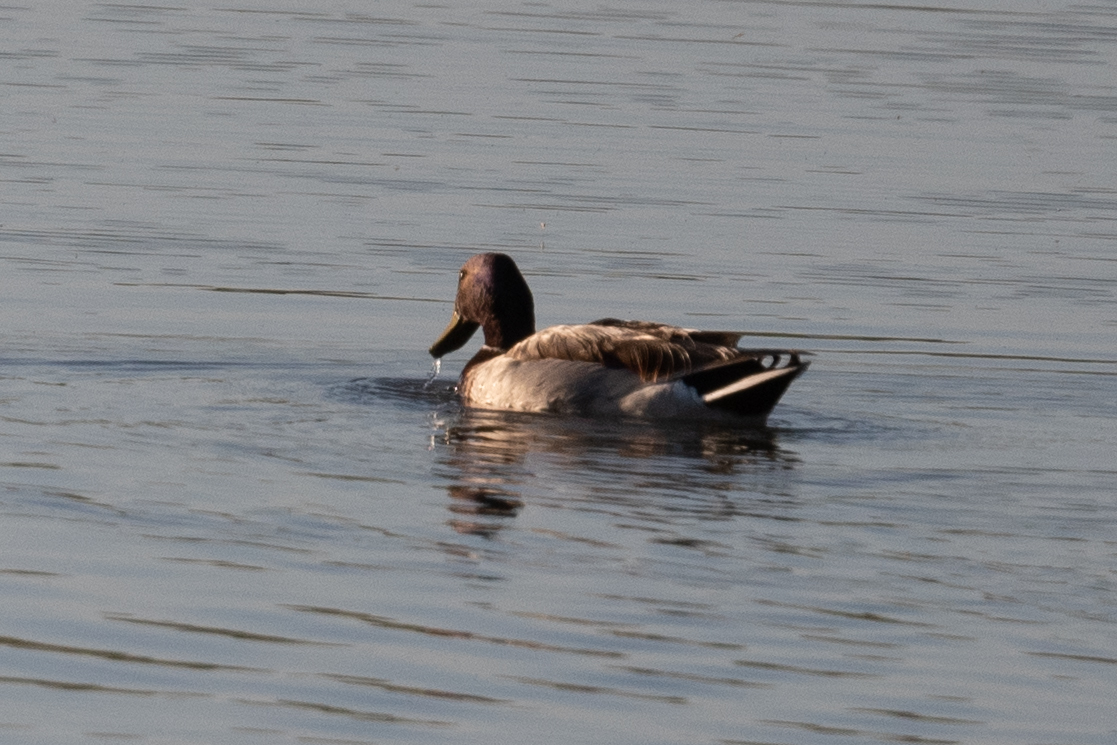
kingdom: Animalia
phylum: Chordata
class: Aves
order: Anseriformes
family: Anatidae
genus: Anas
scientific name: Anas platyrhynchos
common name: Mallard
